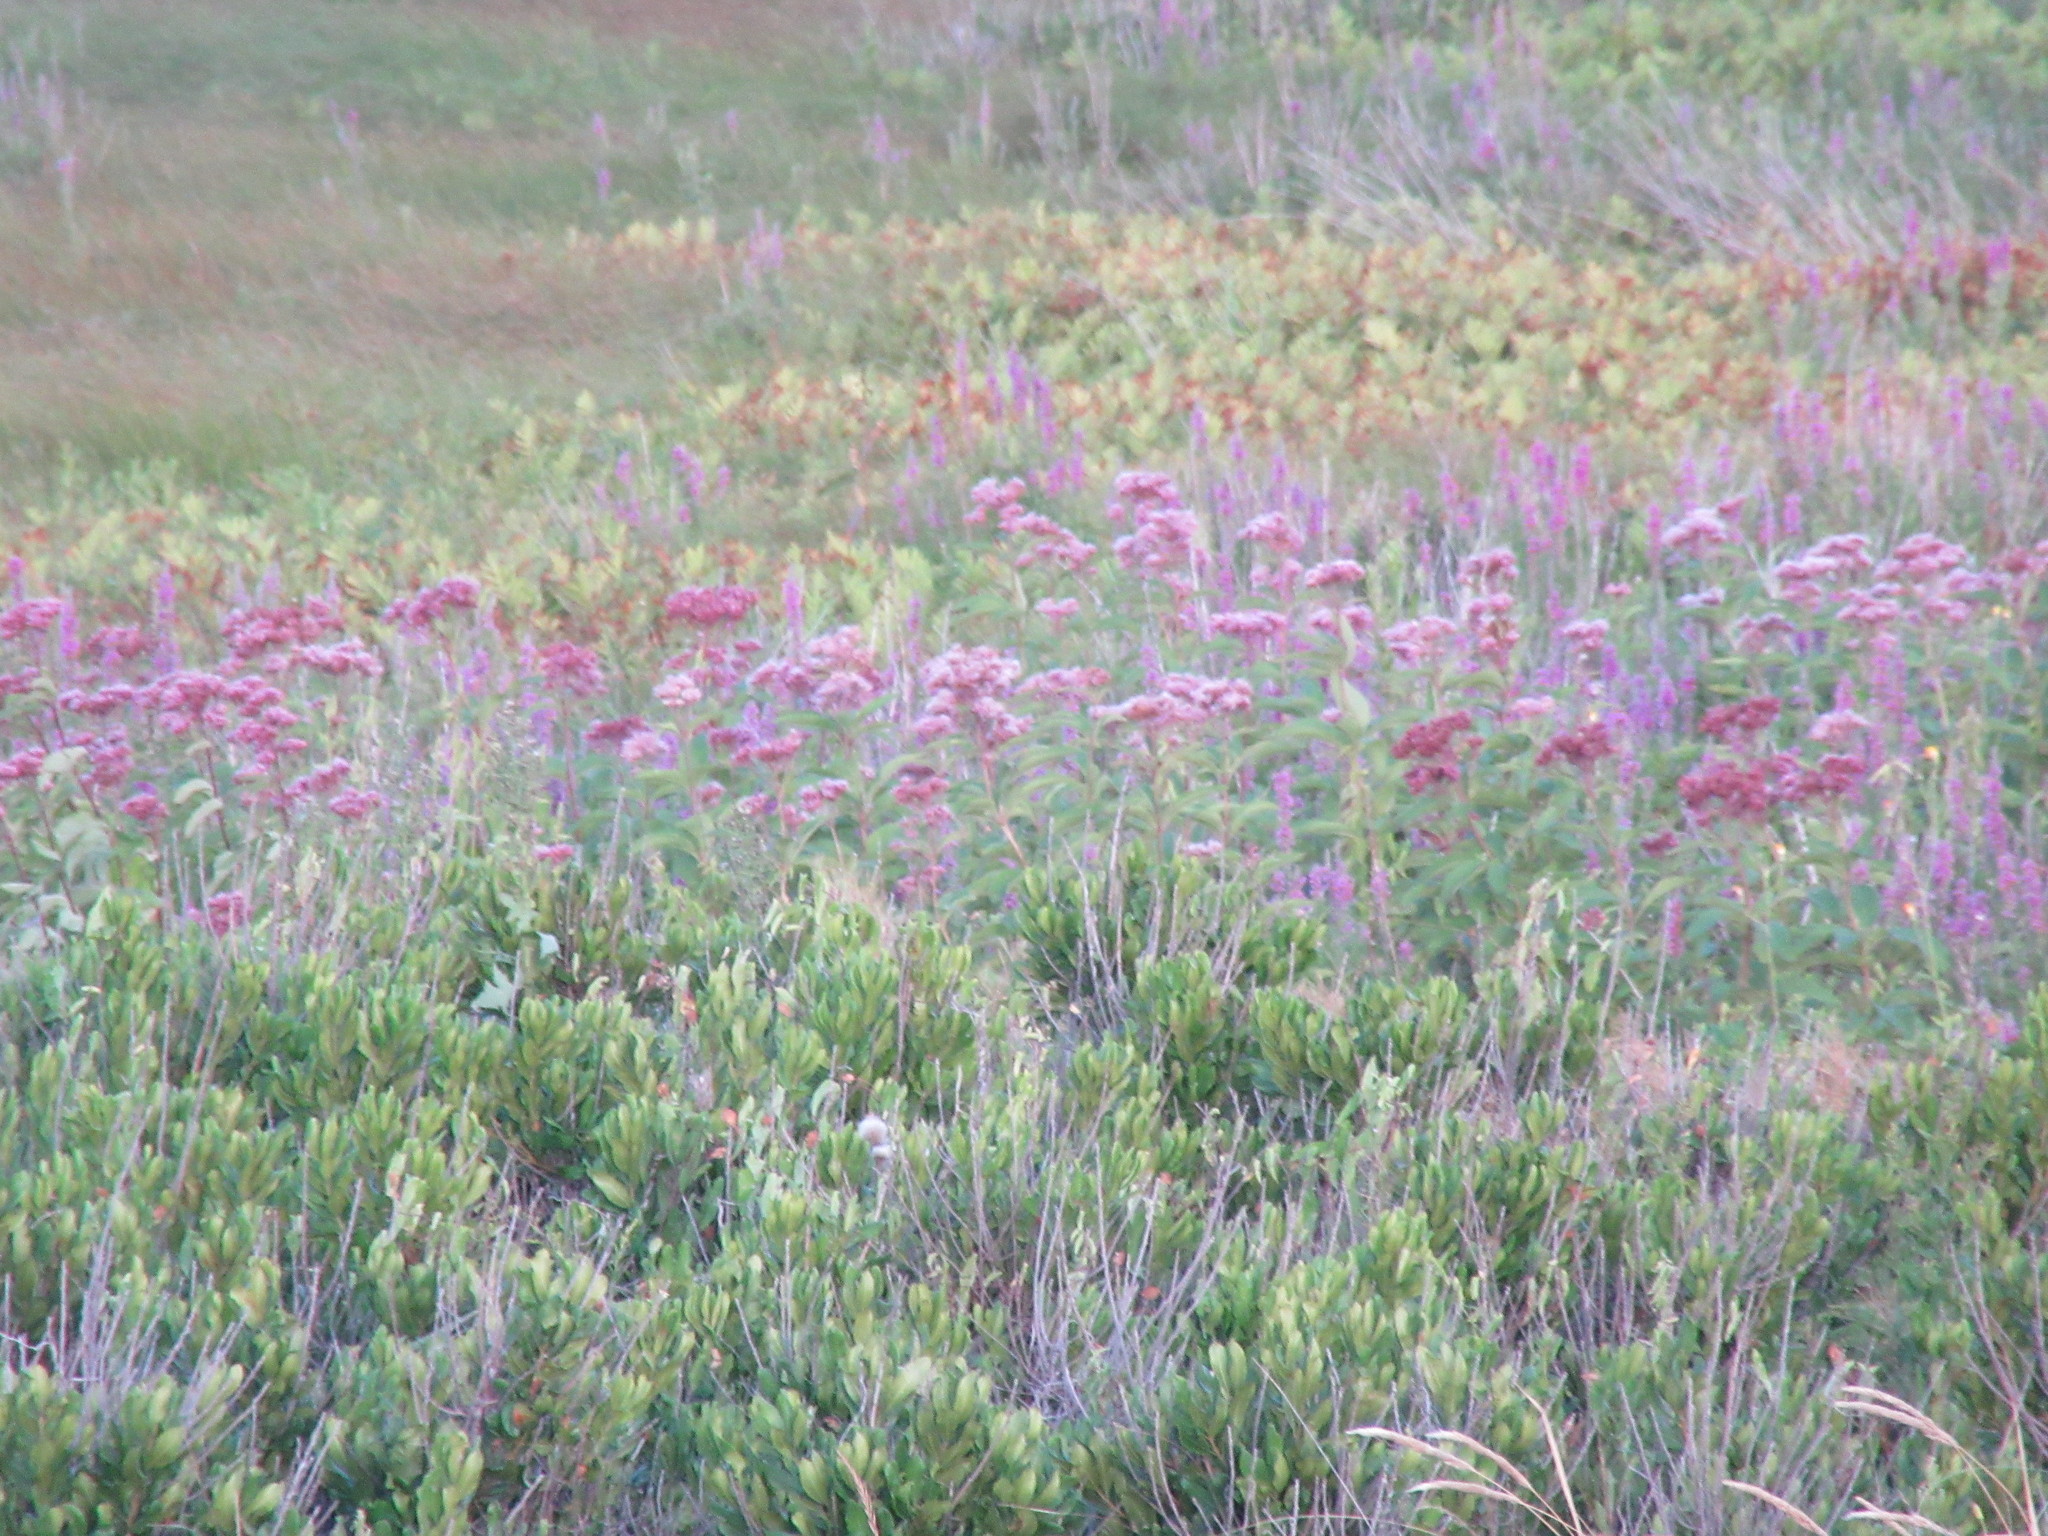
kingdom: Plantae
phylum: Tracheophyta
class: Magnoliopsida
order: Asterales
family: Asteraceae
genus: Eutrochium
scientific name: Eutrochium maculatum
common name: Spotted joe pye weed
